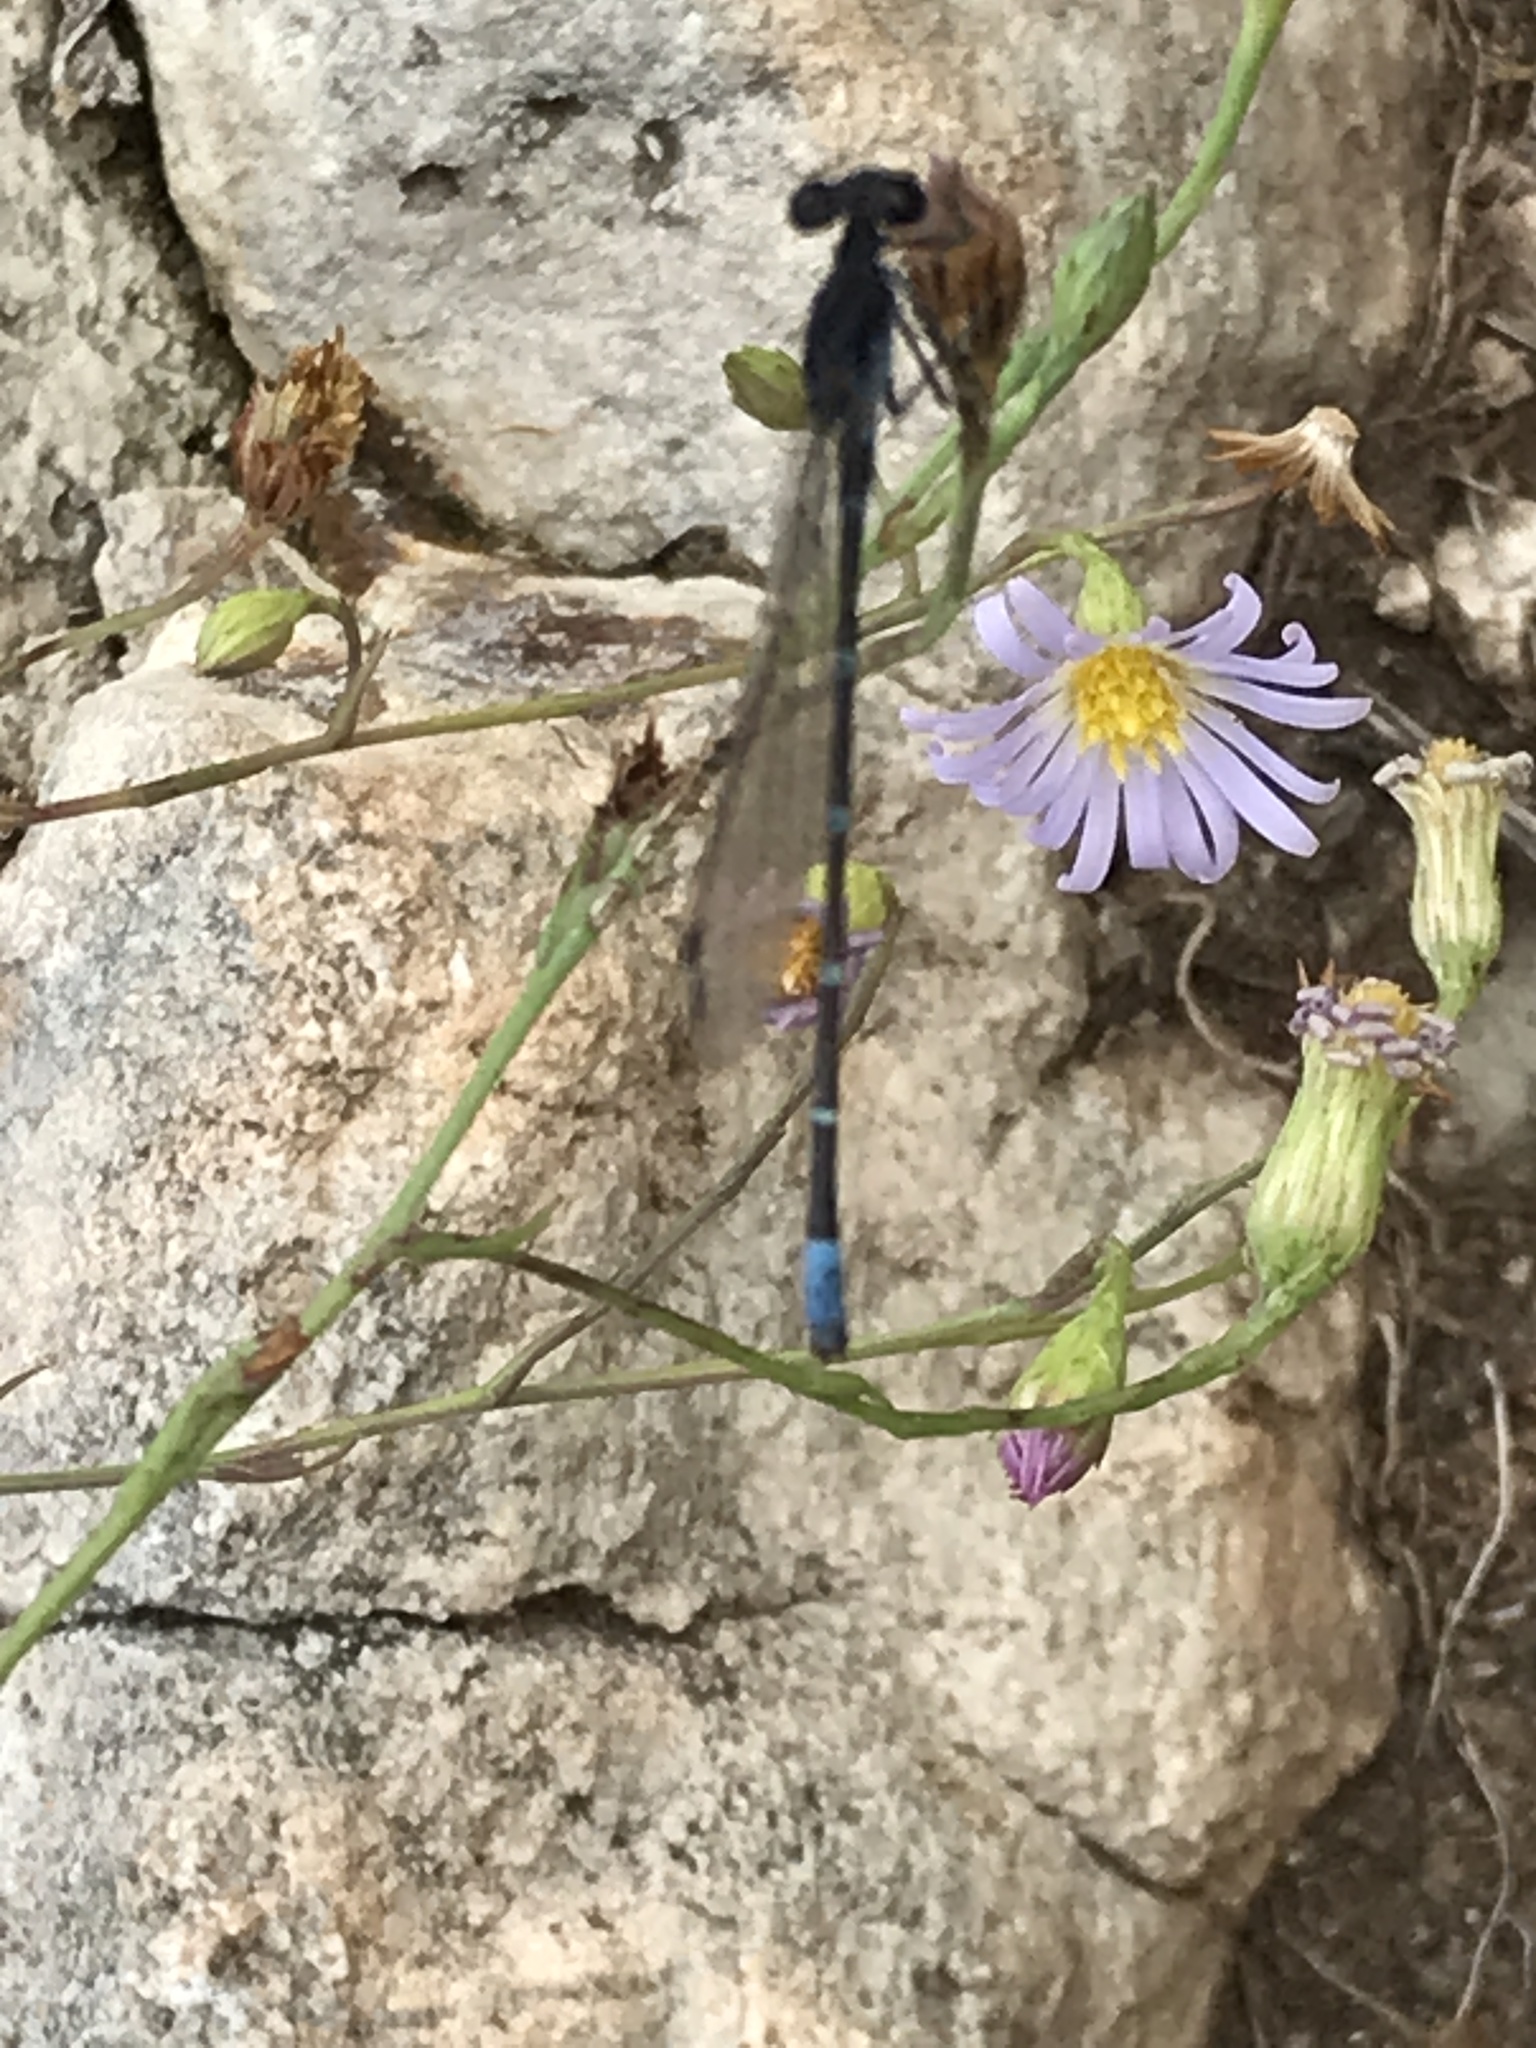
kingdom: Animalia
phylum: Arthropoda
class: Insecta
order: Odonata
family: Coenagrionidae
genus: Argia
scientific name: Argia sedula
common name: Blue-ringed dancer
